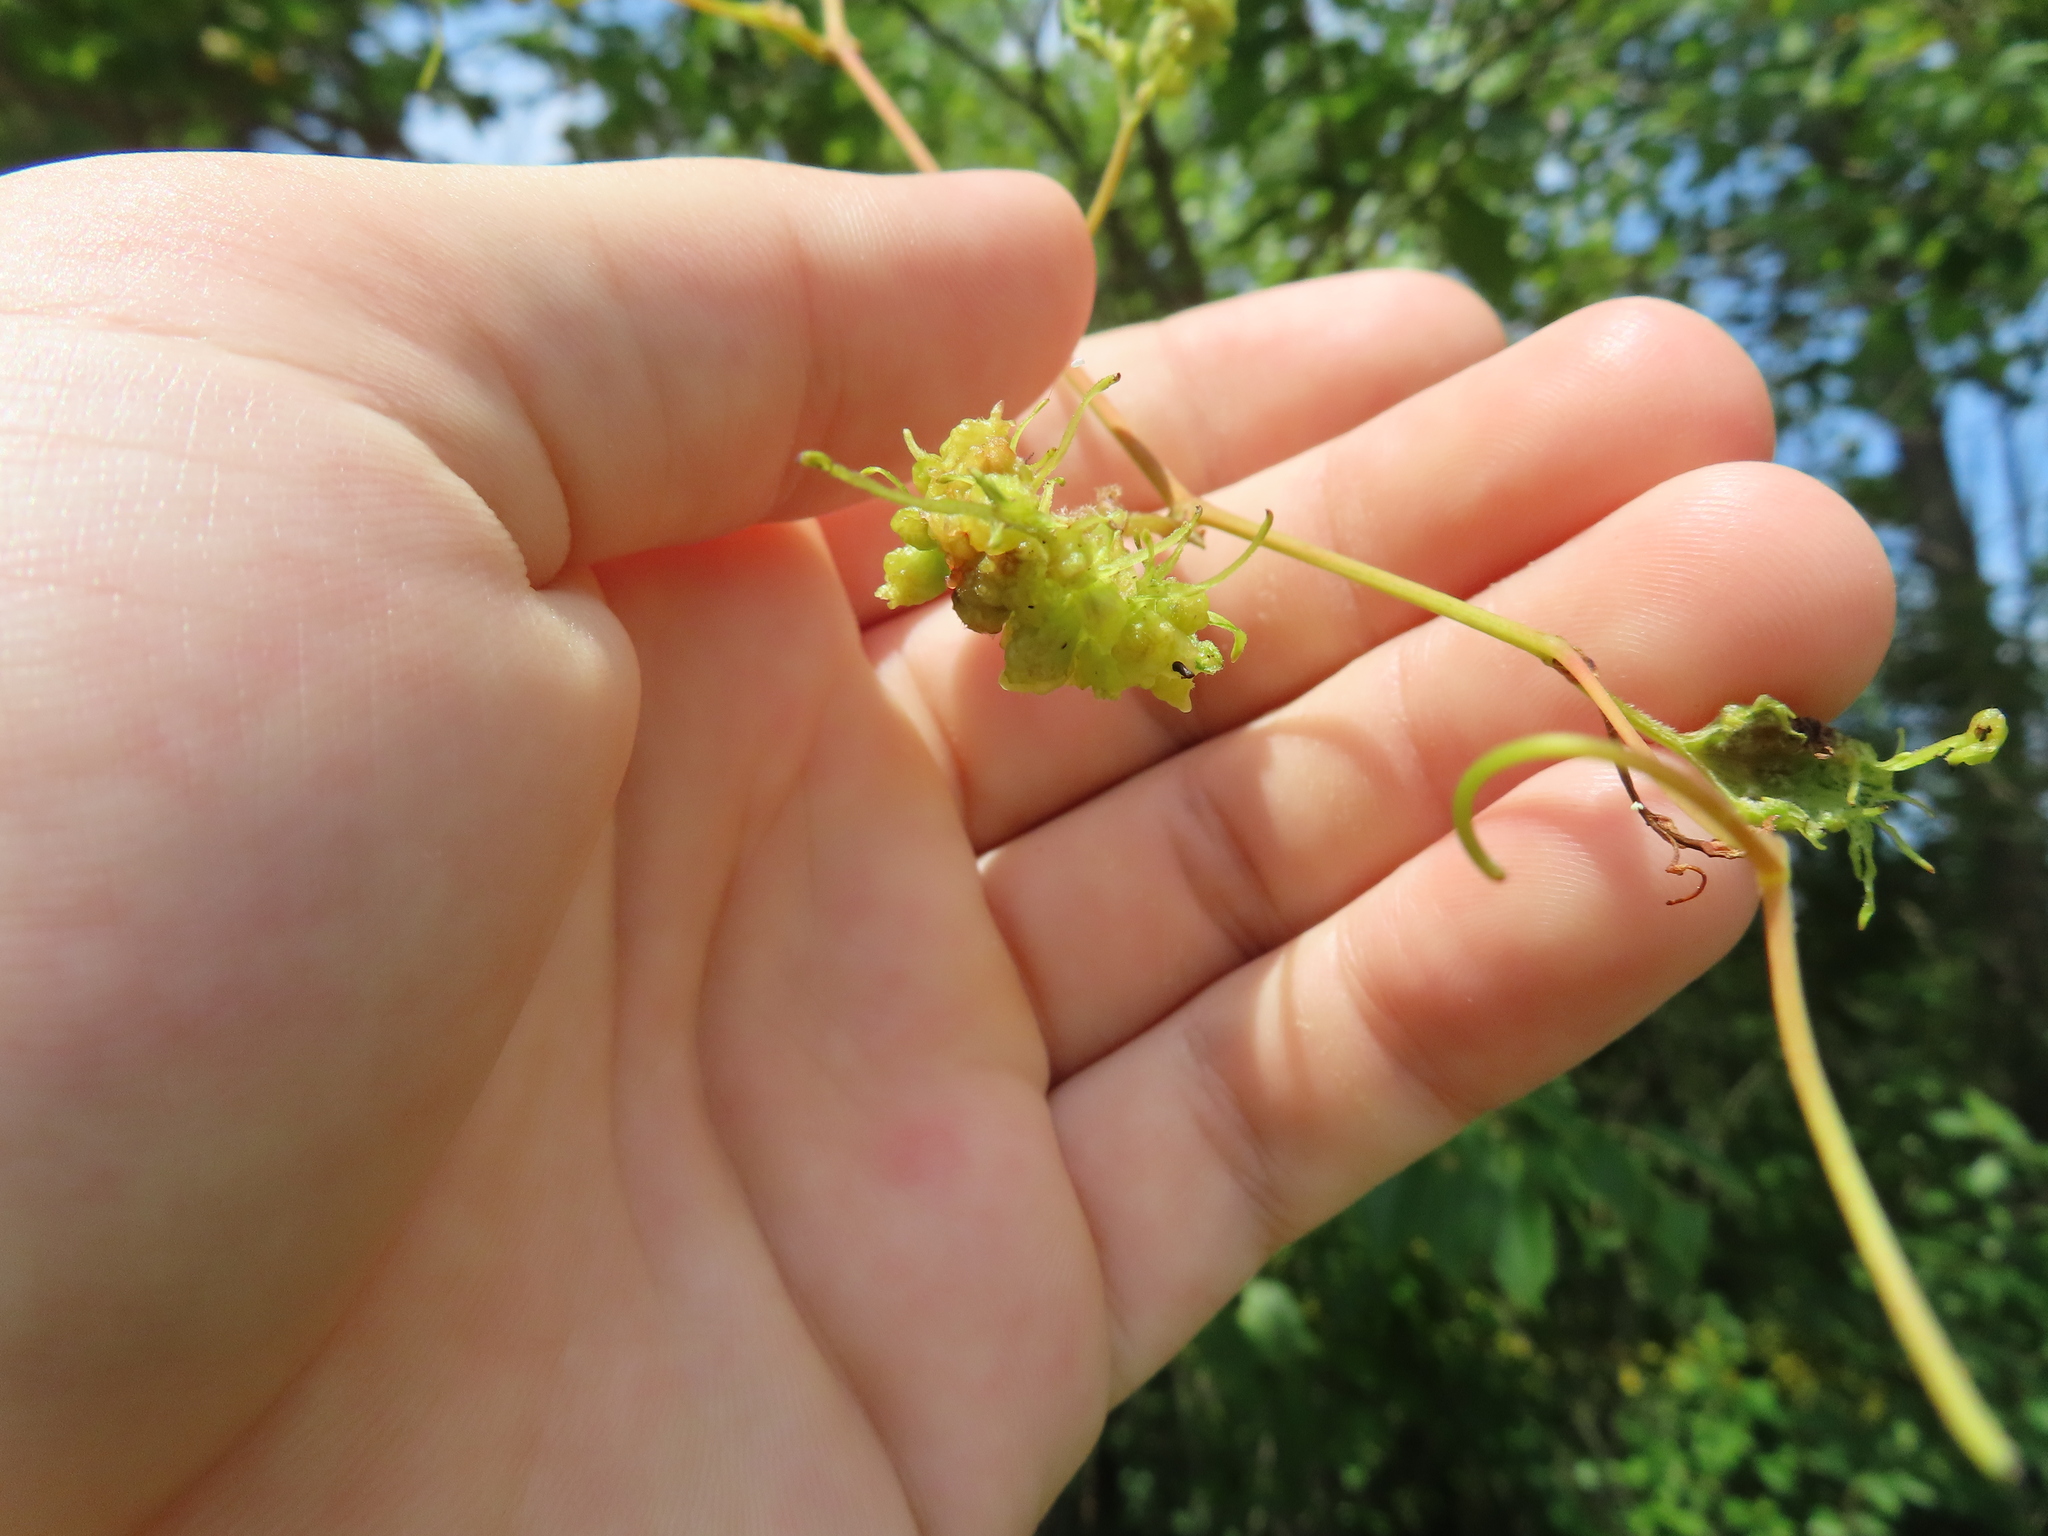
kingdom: Animalia
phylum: Arthropoda
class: Insecta
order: Hemiptera
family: Phylloxeridae
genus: Daktulosphaira
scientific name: Daktulosphaira vitifoliae
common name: Grape phylloxera
